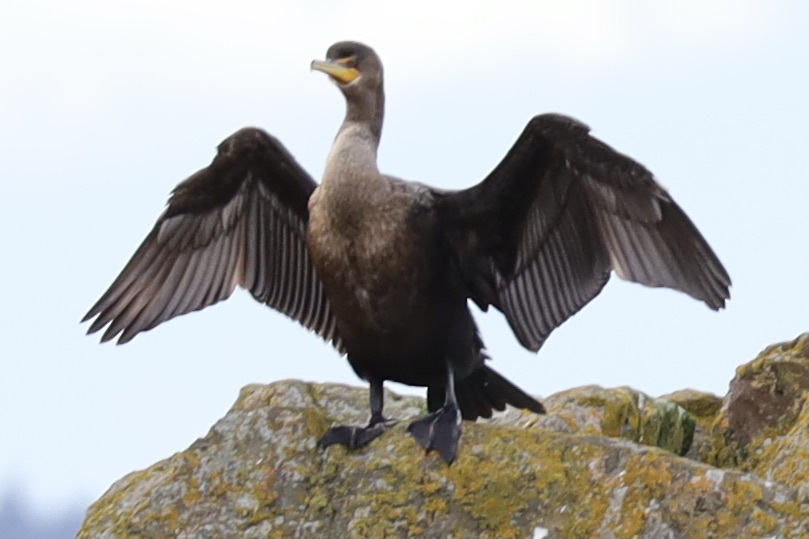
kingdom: Animalia
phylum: Chordata
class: Aves
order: Suliformes
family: Phalacrocoracidae
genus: Phalacrocorax
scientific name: Phalacrocorax auritus
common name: Double-crested cormorant
